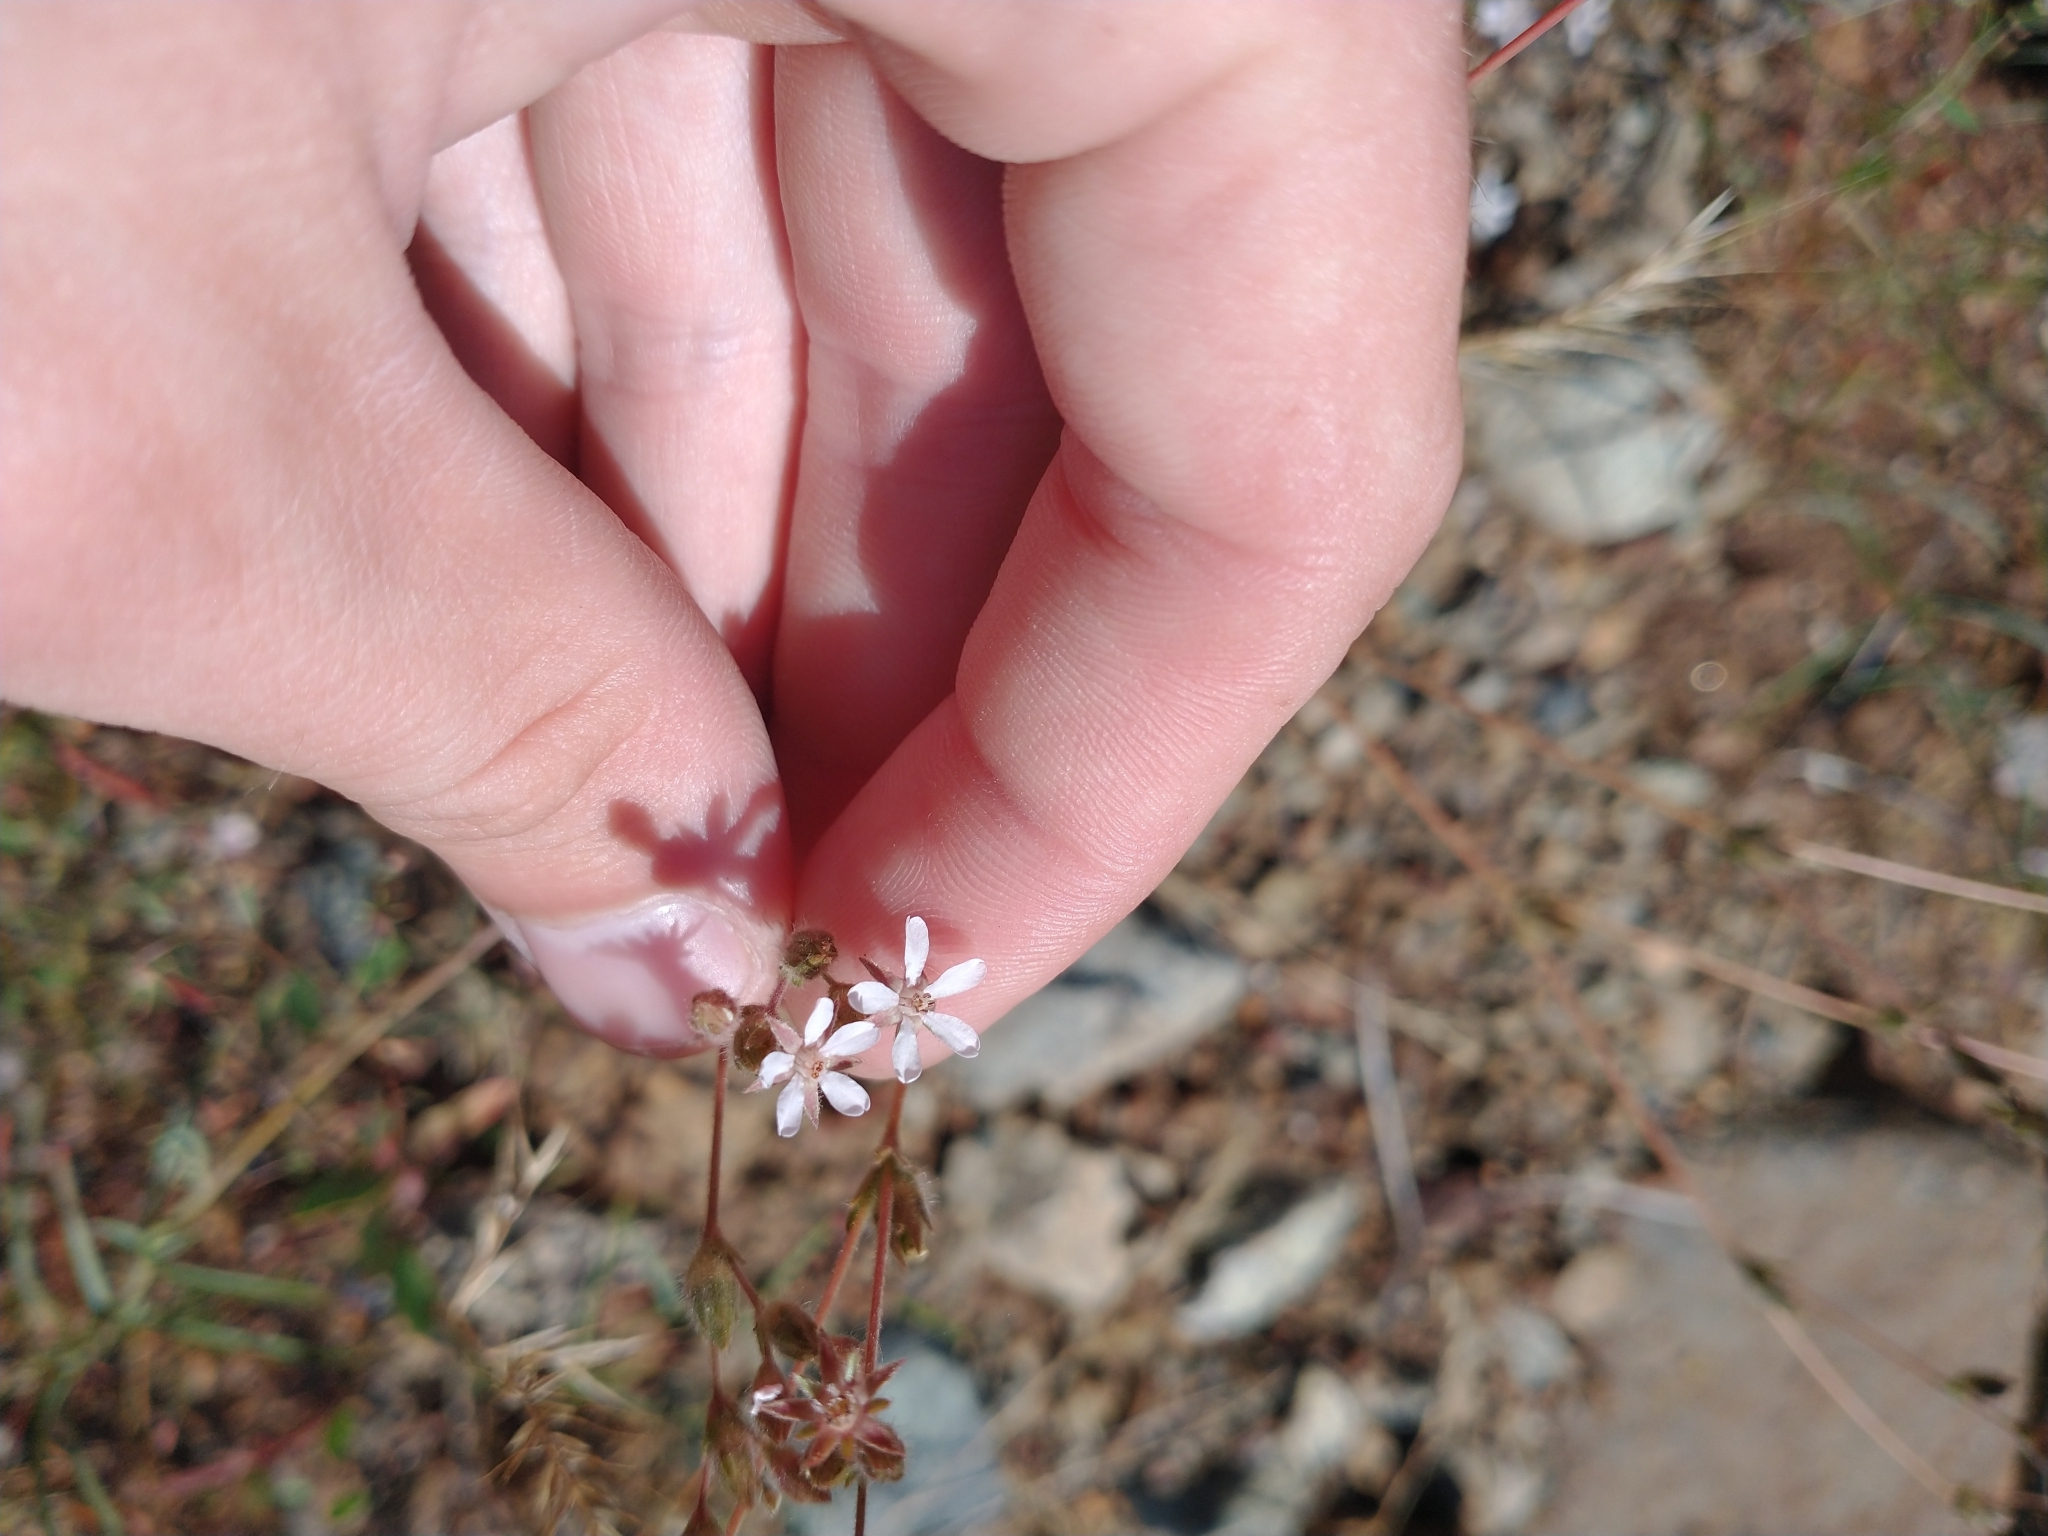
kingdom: Plantae
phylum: Tracheophyta
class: Magnoliopsida
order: Rosales
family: Rosaceae
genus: Potentilla
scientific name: Potentilla howellii
